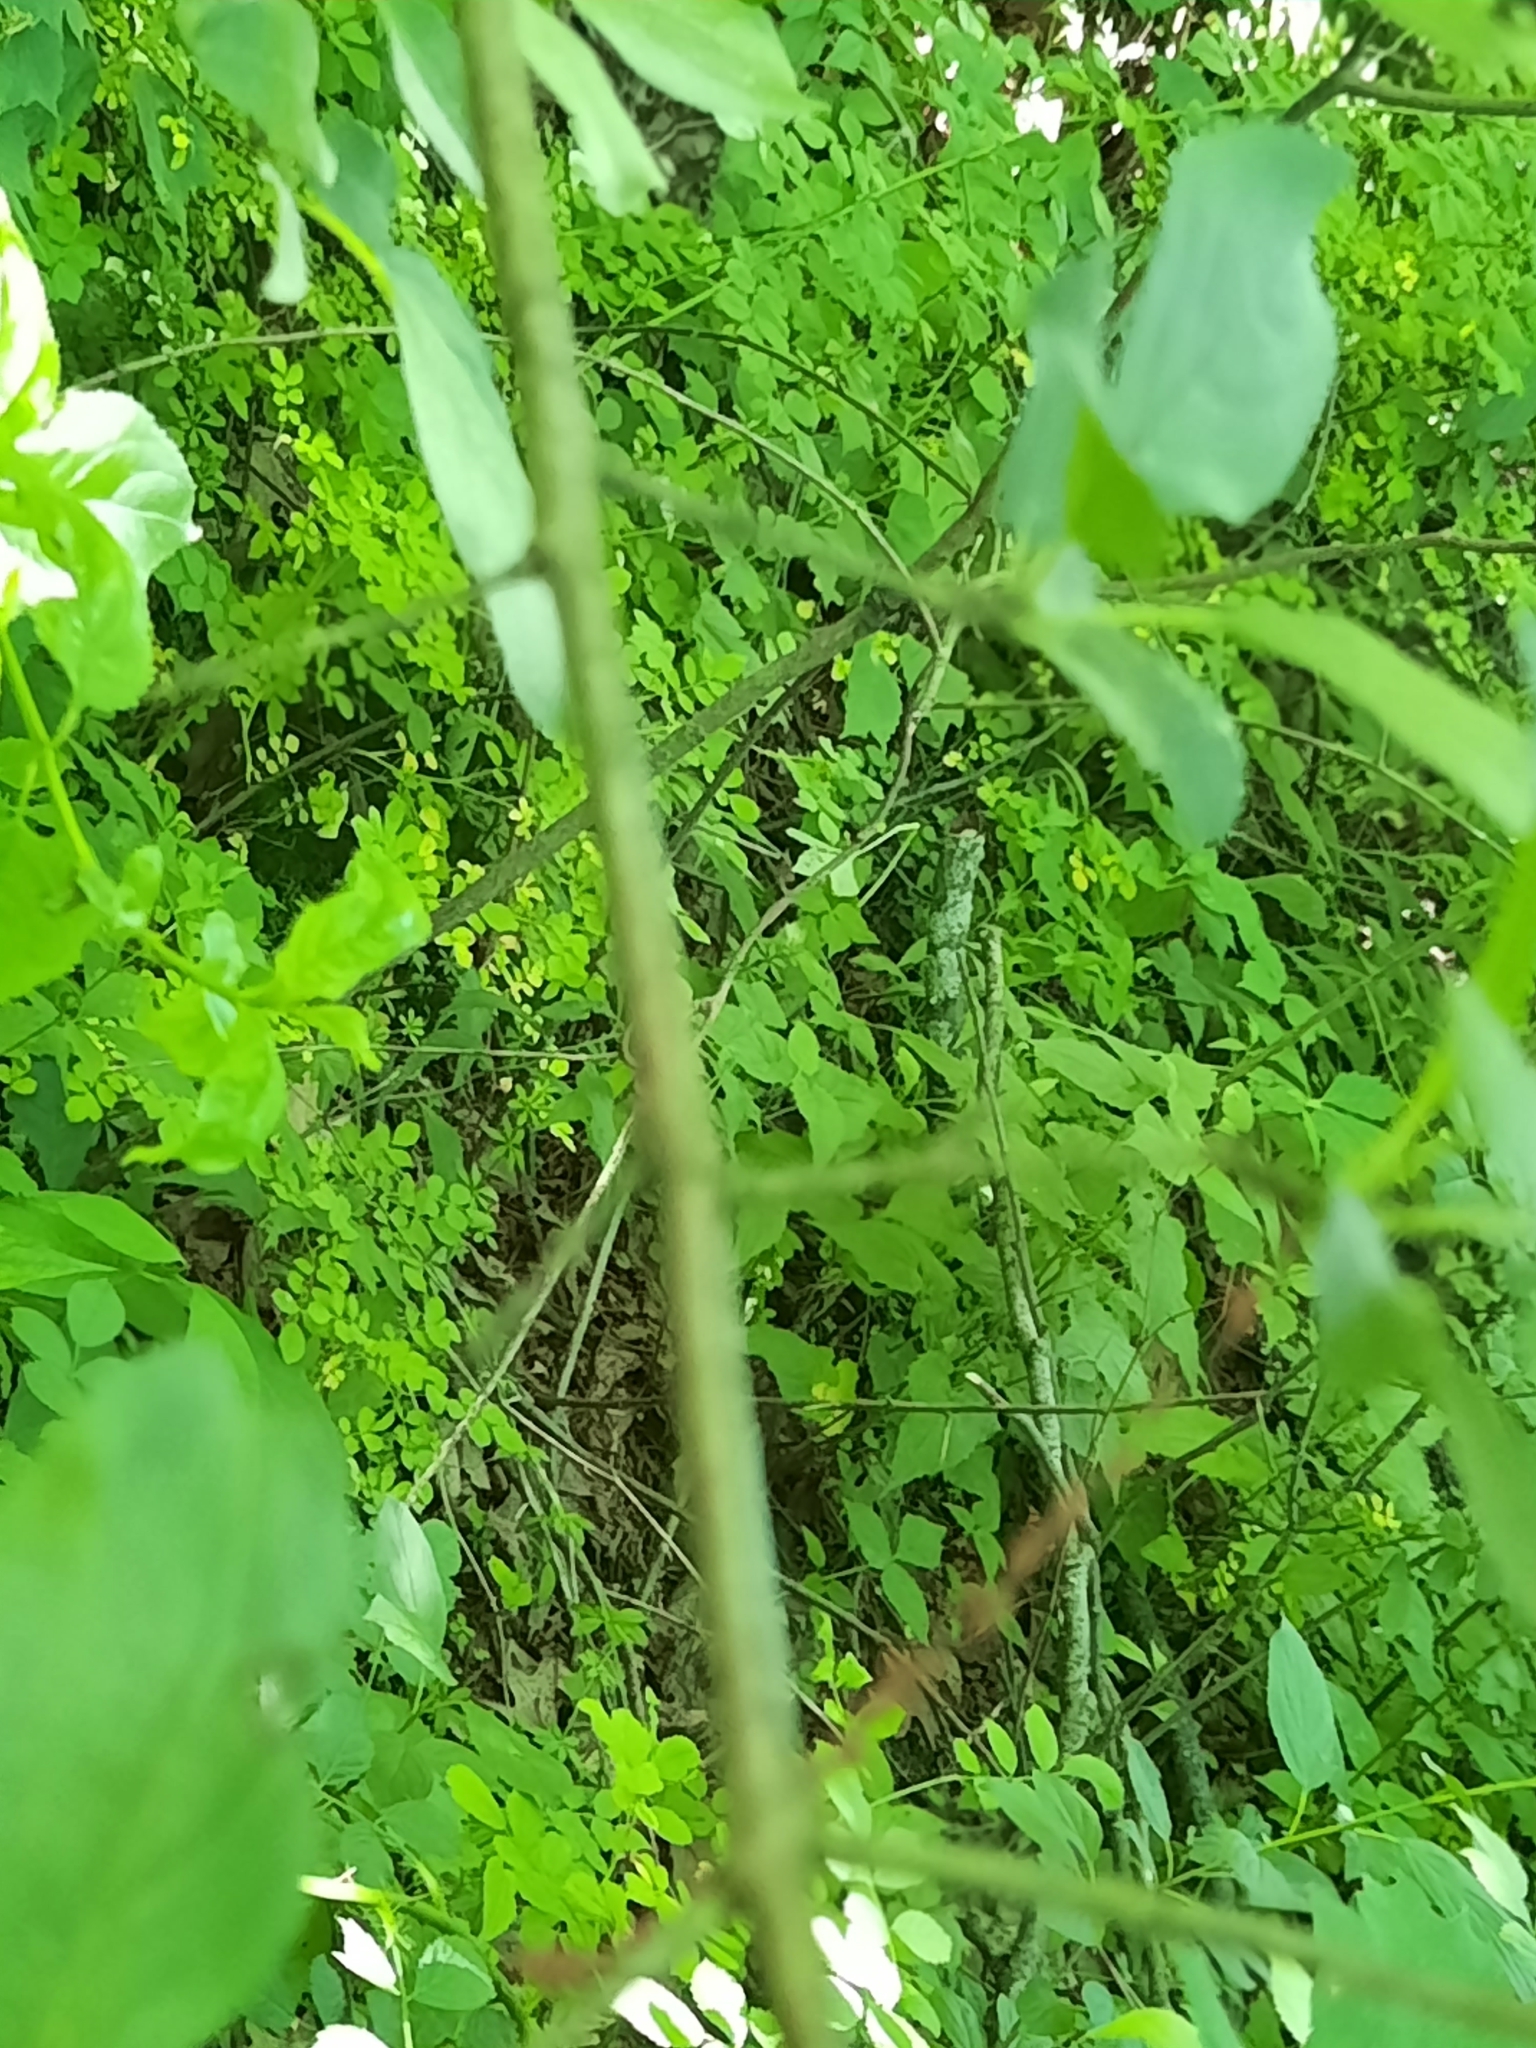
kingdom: Plantae
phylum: Tracheophyta
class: Magnoliopsida
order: Rosales
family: Rhamnaceae
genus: Rhamnus
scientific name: Rhamnus cathartica
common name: Common buckthorn
